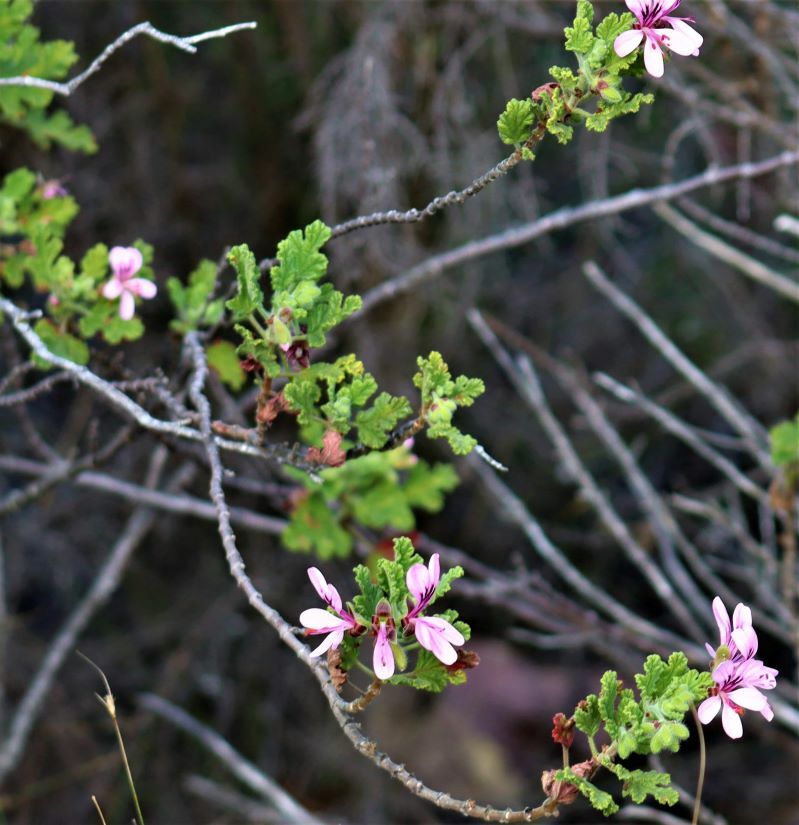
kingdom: Plantae
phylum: Tracheophyta
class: Magnoliopsida
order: Geraniales
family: Geraniaceae
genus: Pelargonium
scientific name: Pelargonium panduriforme
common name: Oakleaf garden geranium
